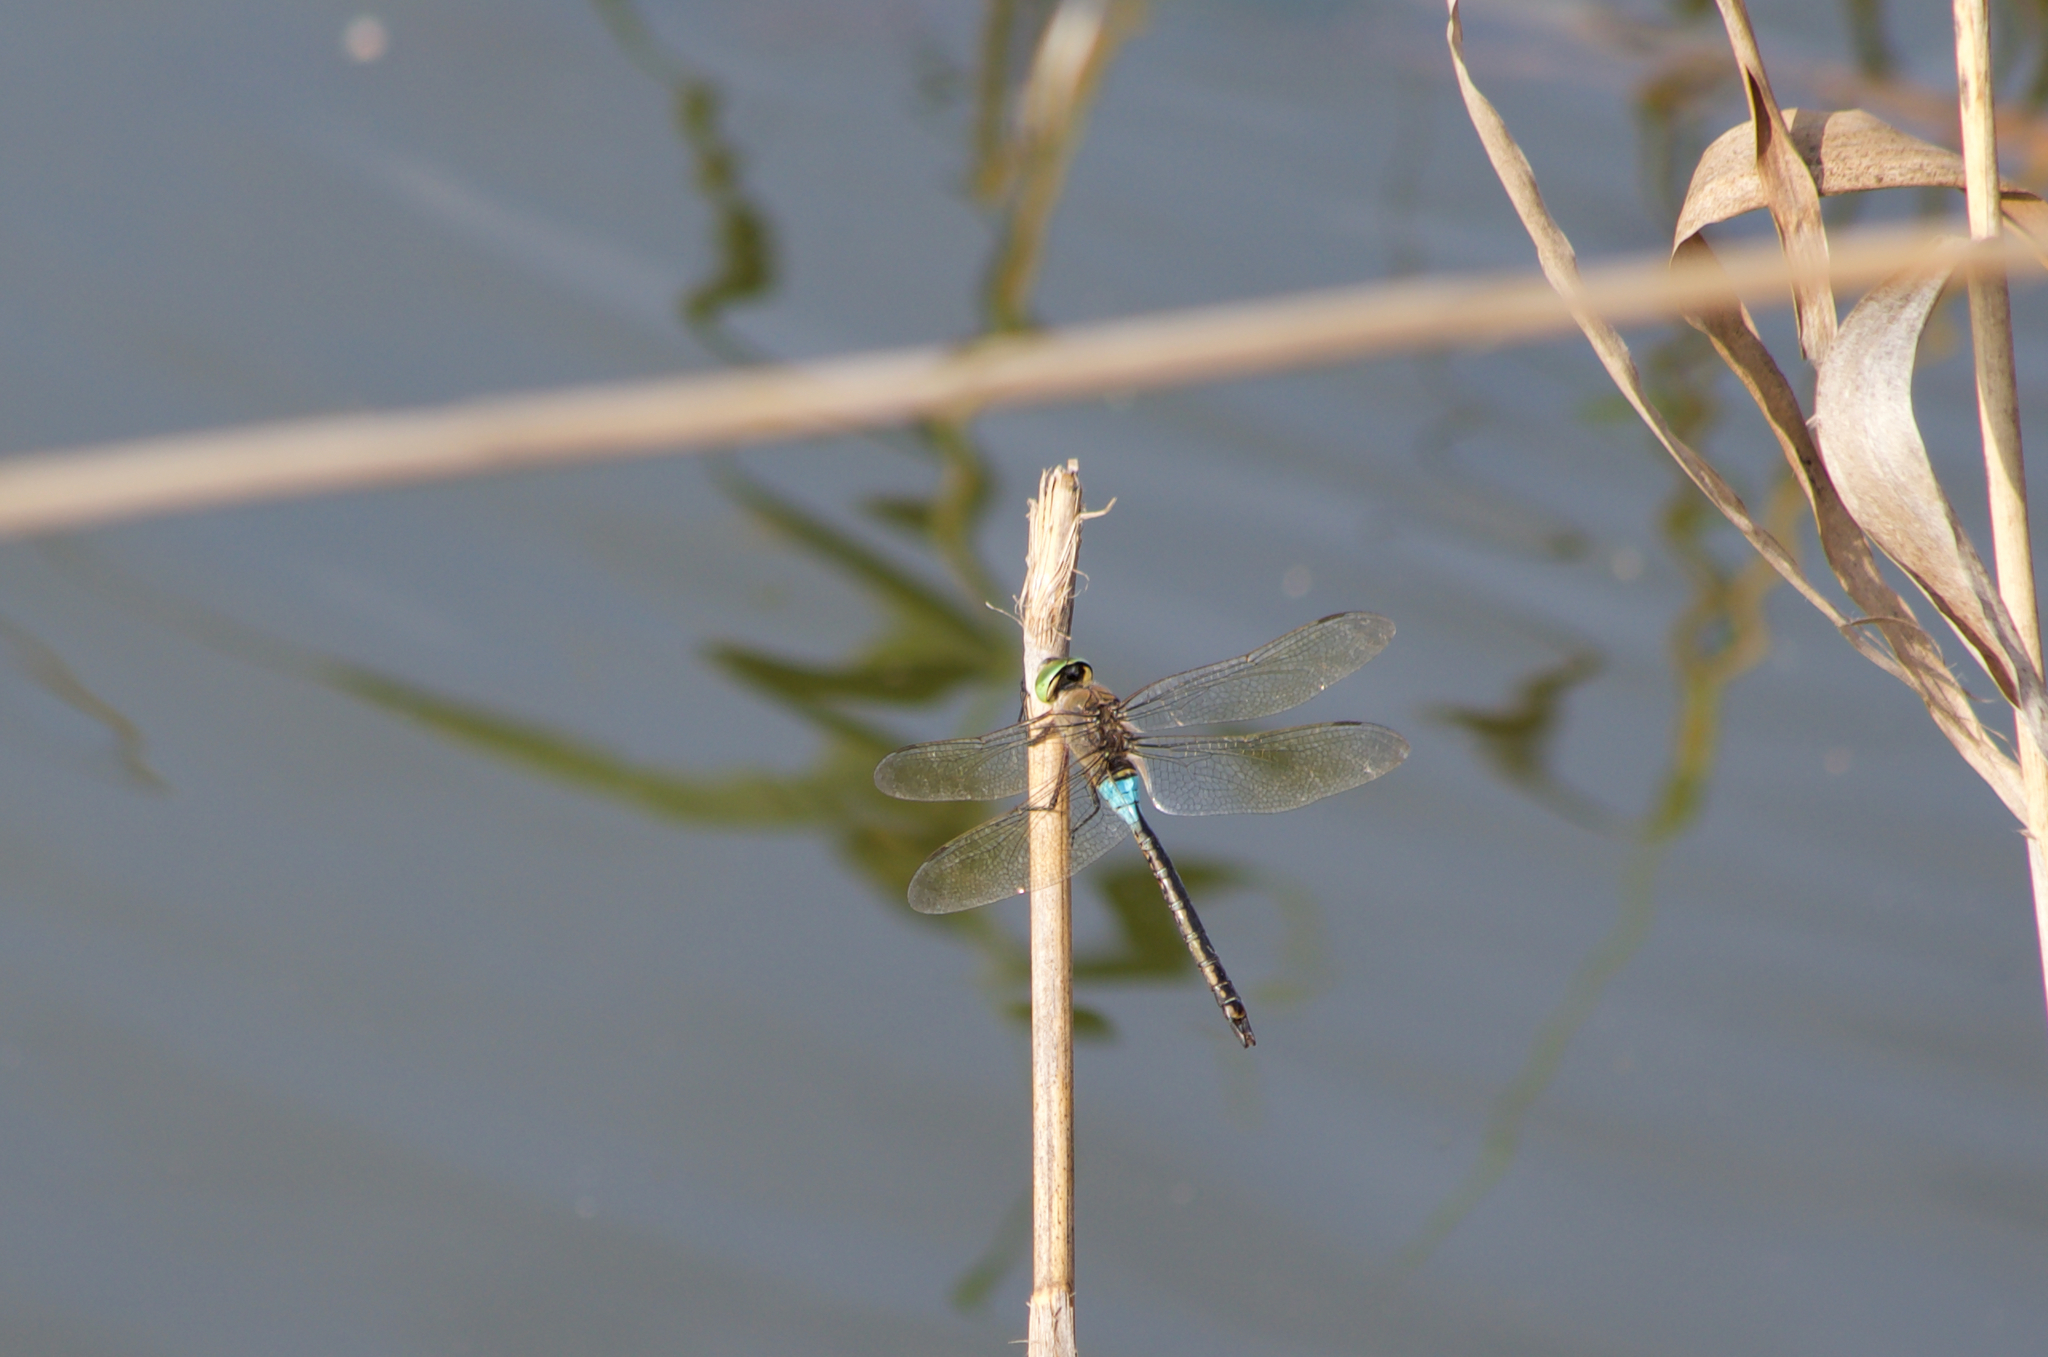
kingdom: Animalia
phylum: Arthropoda
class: Insecta
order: Odonata
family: Aeshnidae
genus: Anax
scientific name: Anax parthenope
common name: Lesser emperor
